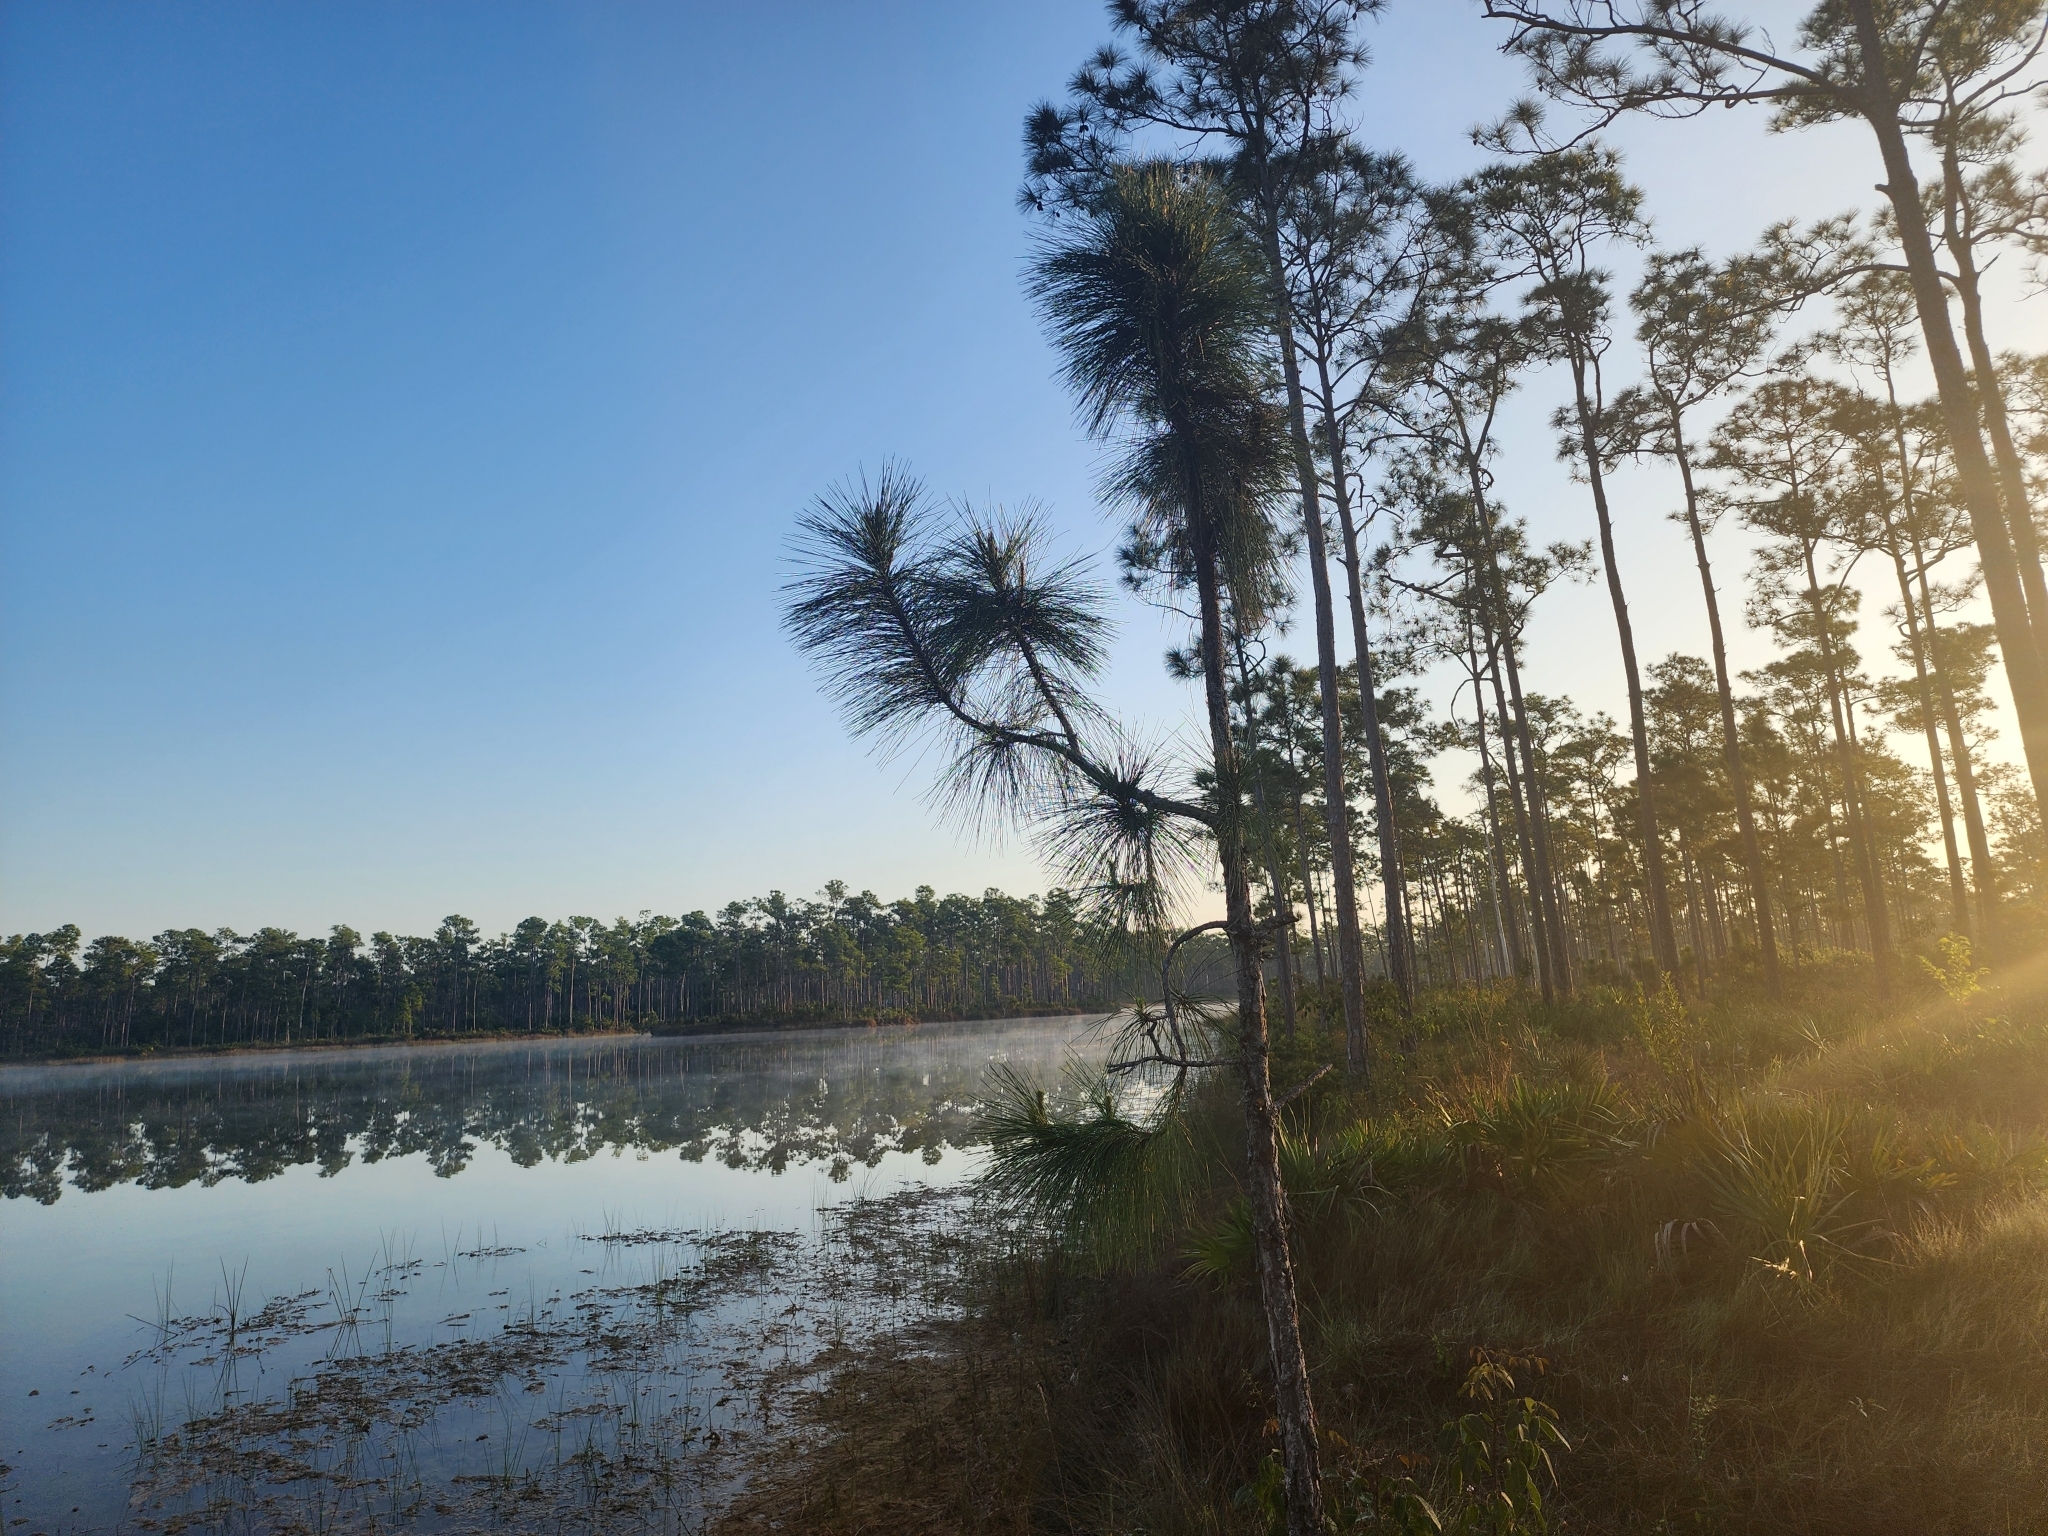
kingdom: Plantae
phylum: Tracheophyta
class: Pinopsida
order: Pinales
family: Pinaceae
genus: Pinus
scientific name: Pinus elliottii
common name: Slash pine
